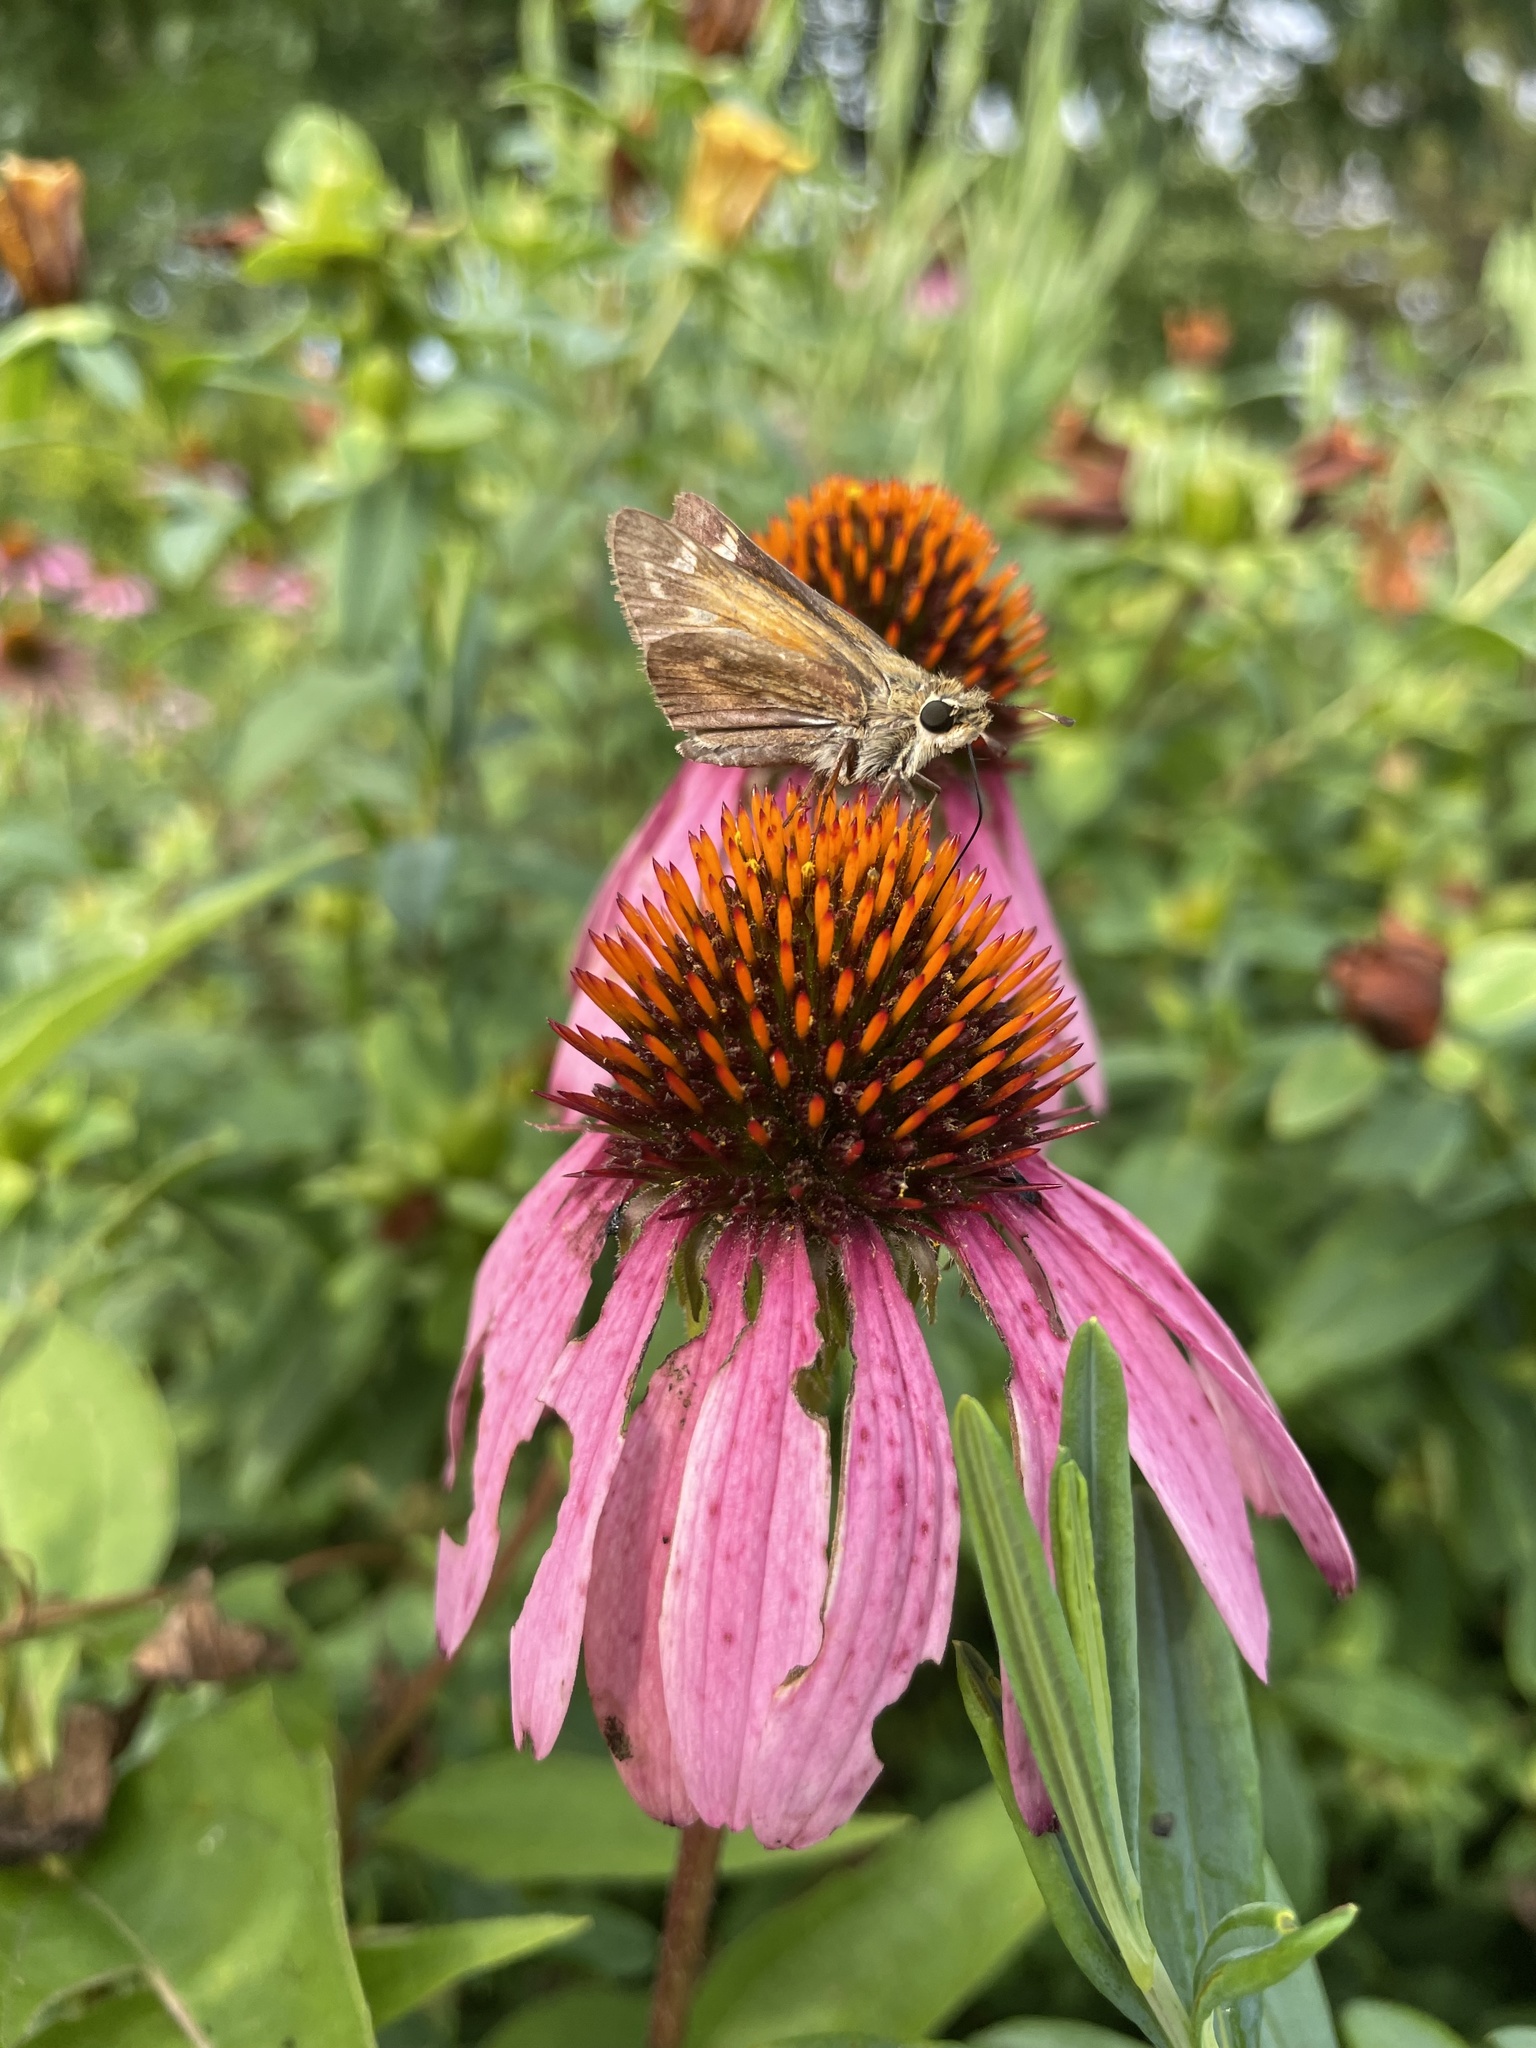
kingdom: Animalia
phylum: Arthropoda
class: Insecta
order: Lepidoptera
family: Hesperiidae
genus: Atalopedes
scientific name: Atalopedes
